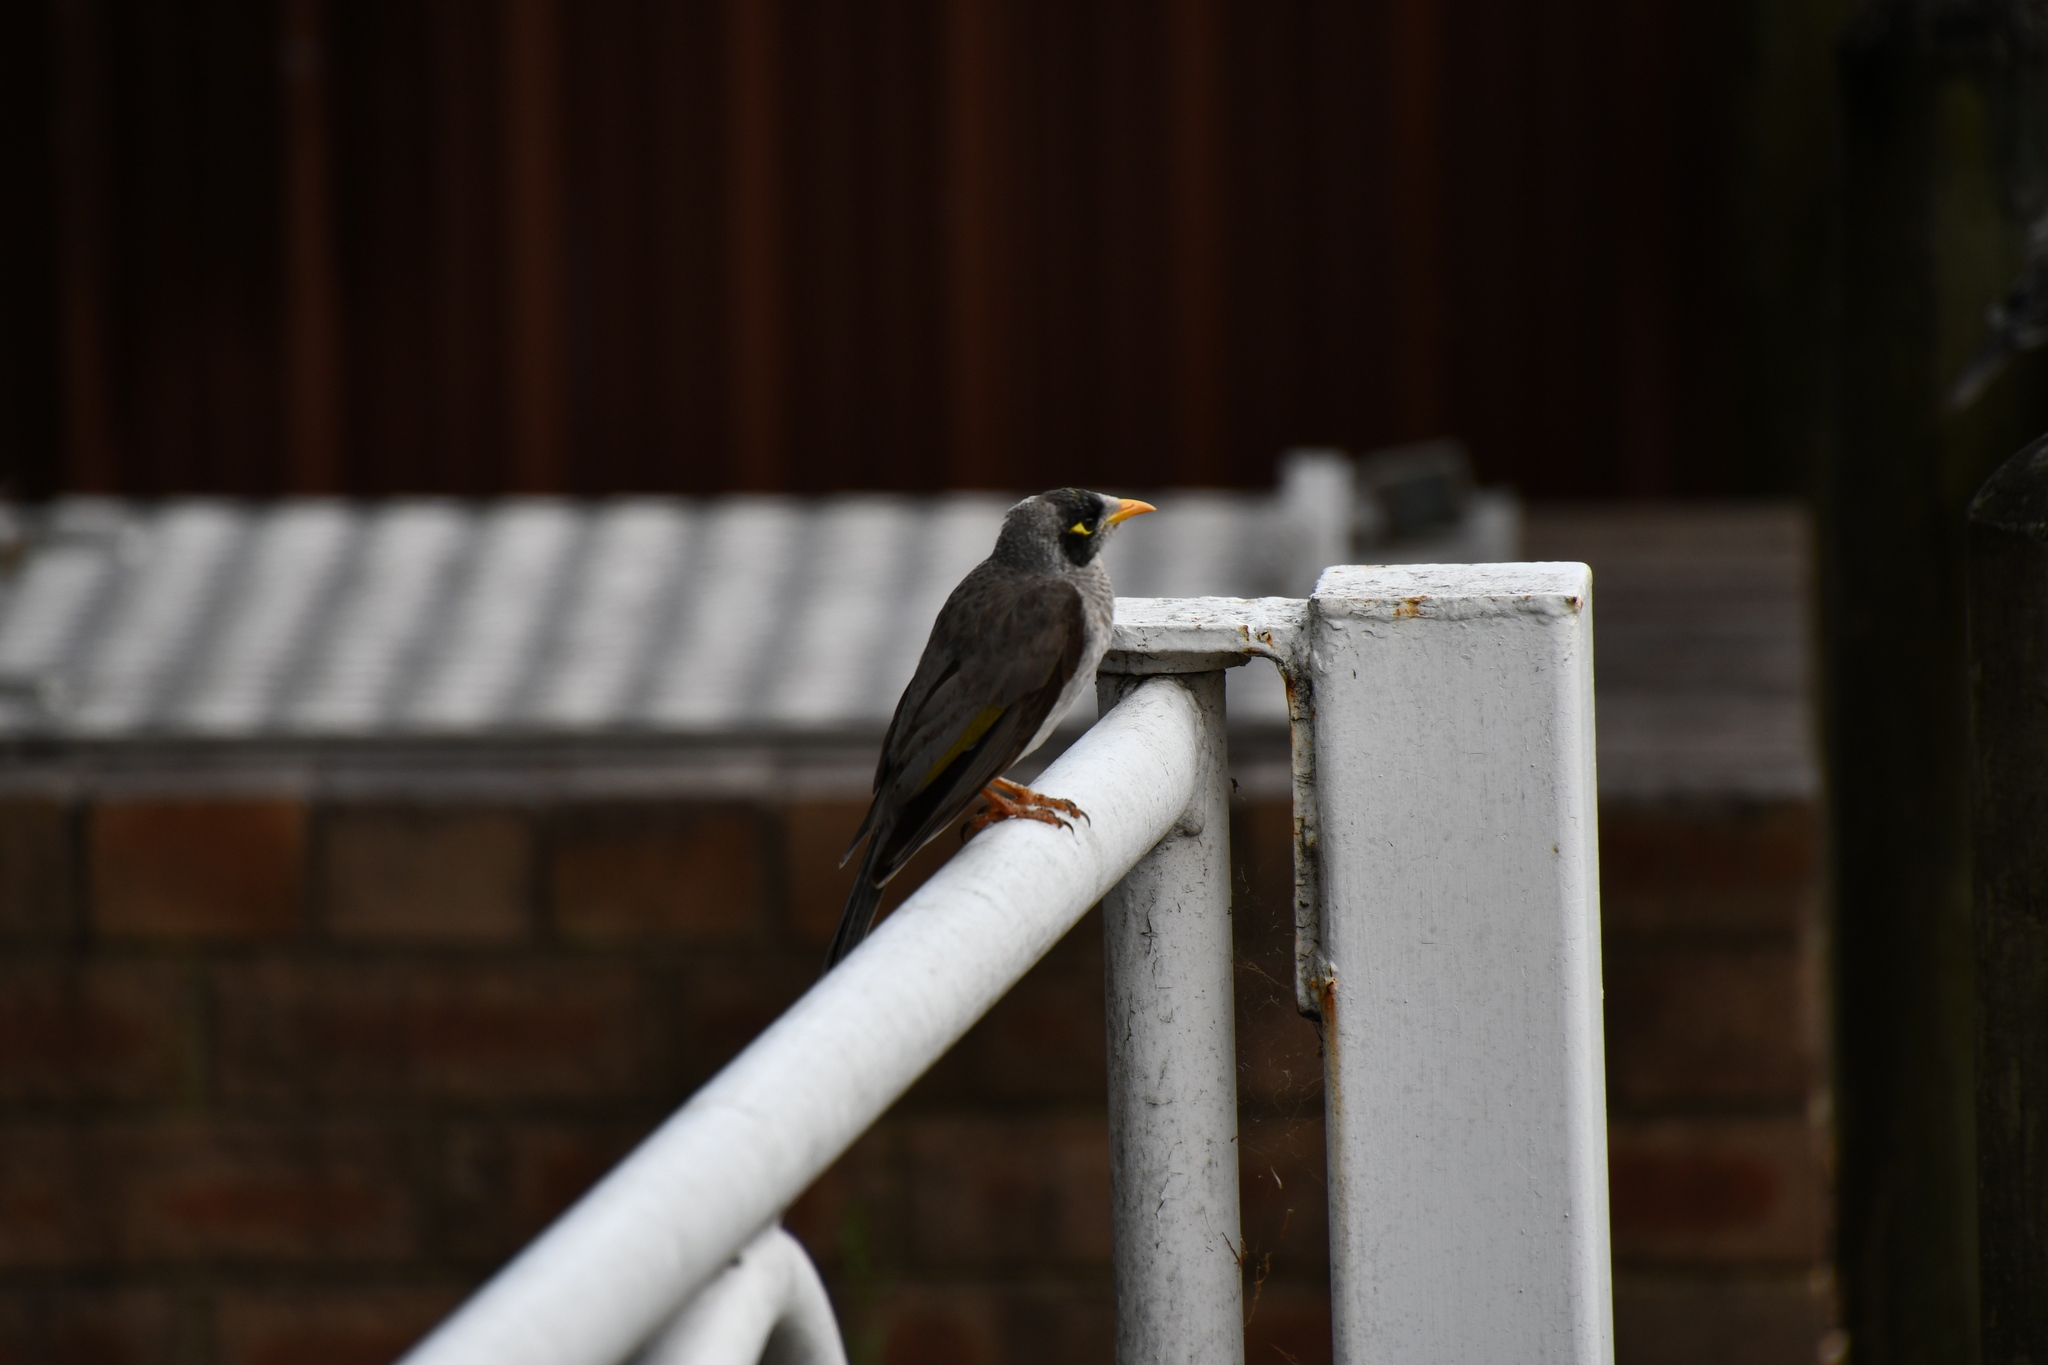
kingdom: Animalia
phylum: Chordata
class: Aves
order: Passeriformes
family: Meliphagidae
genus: Manorina
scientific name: Manorina melanocephala
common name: Noisy miner
